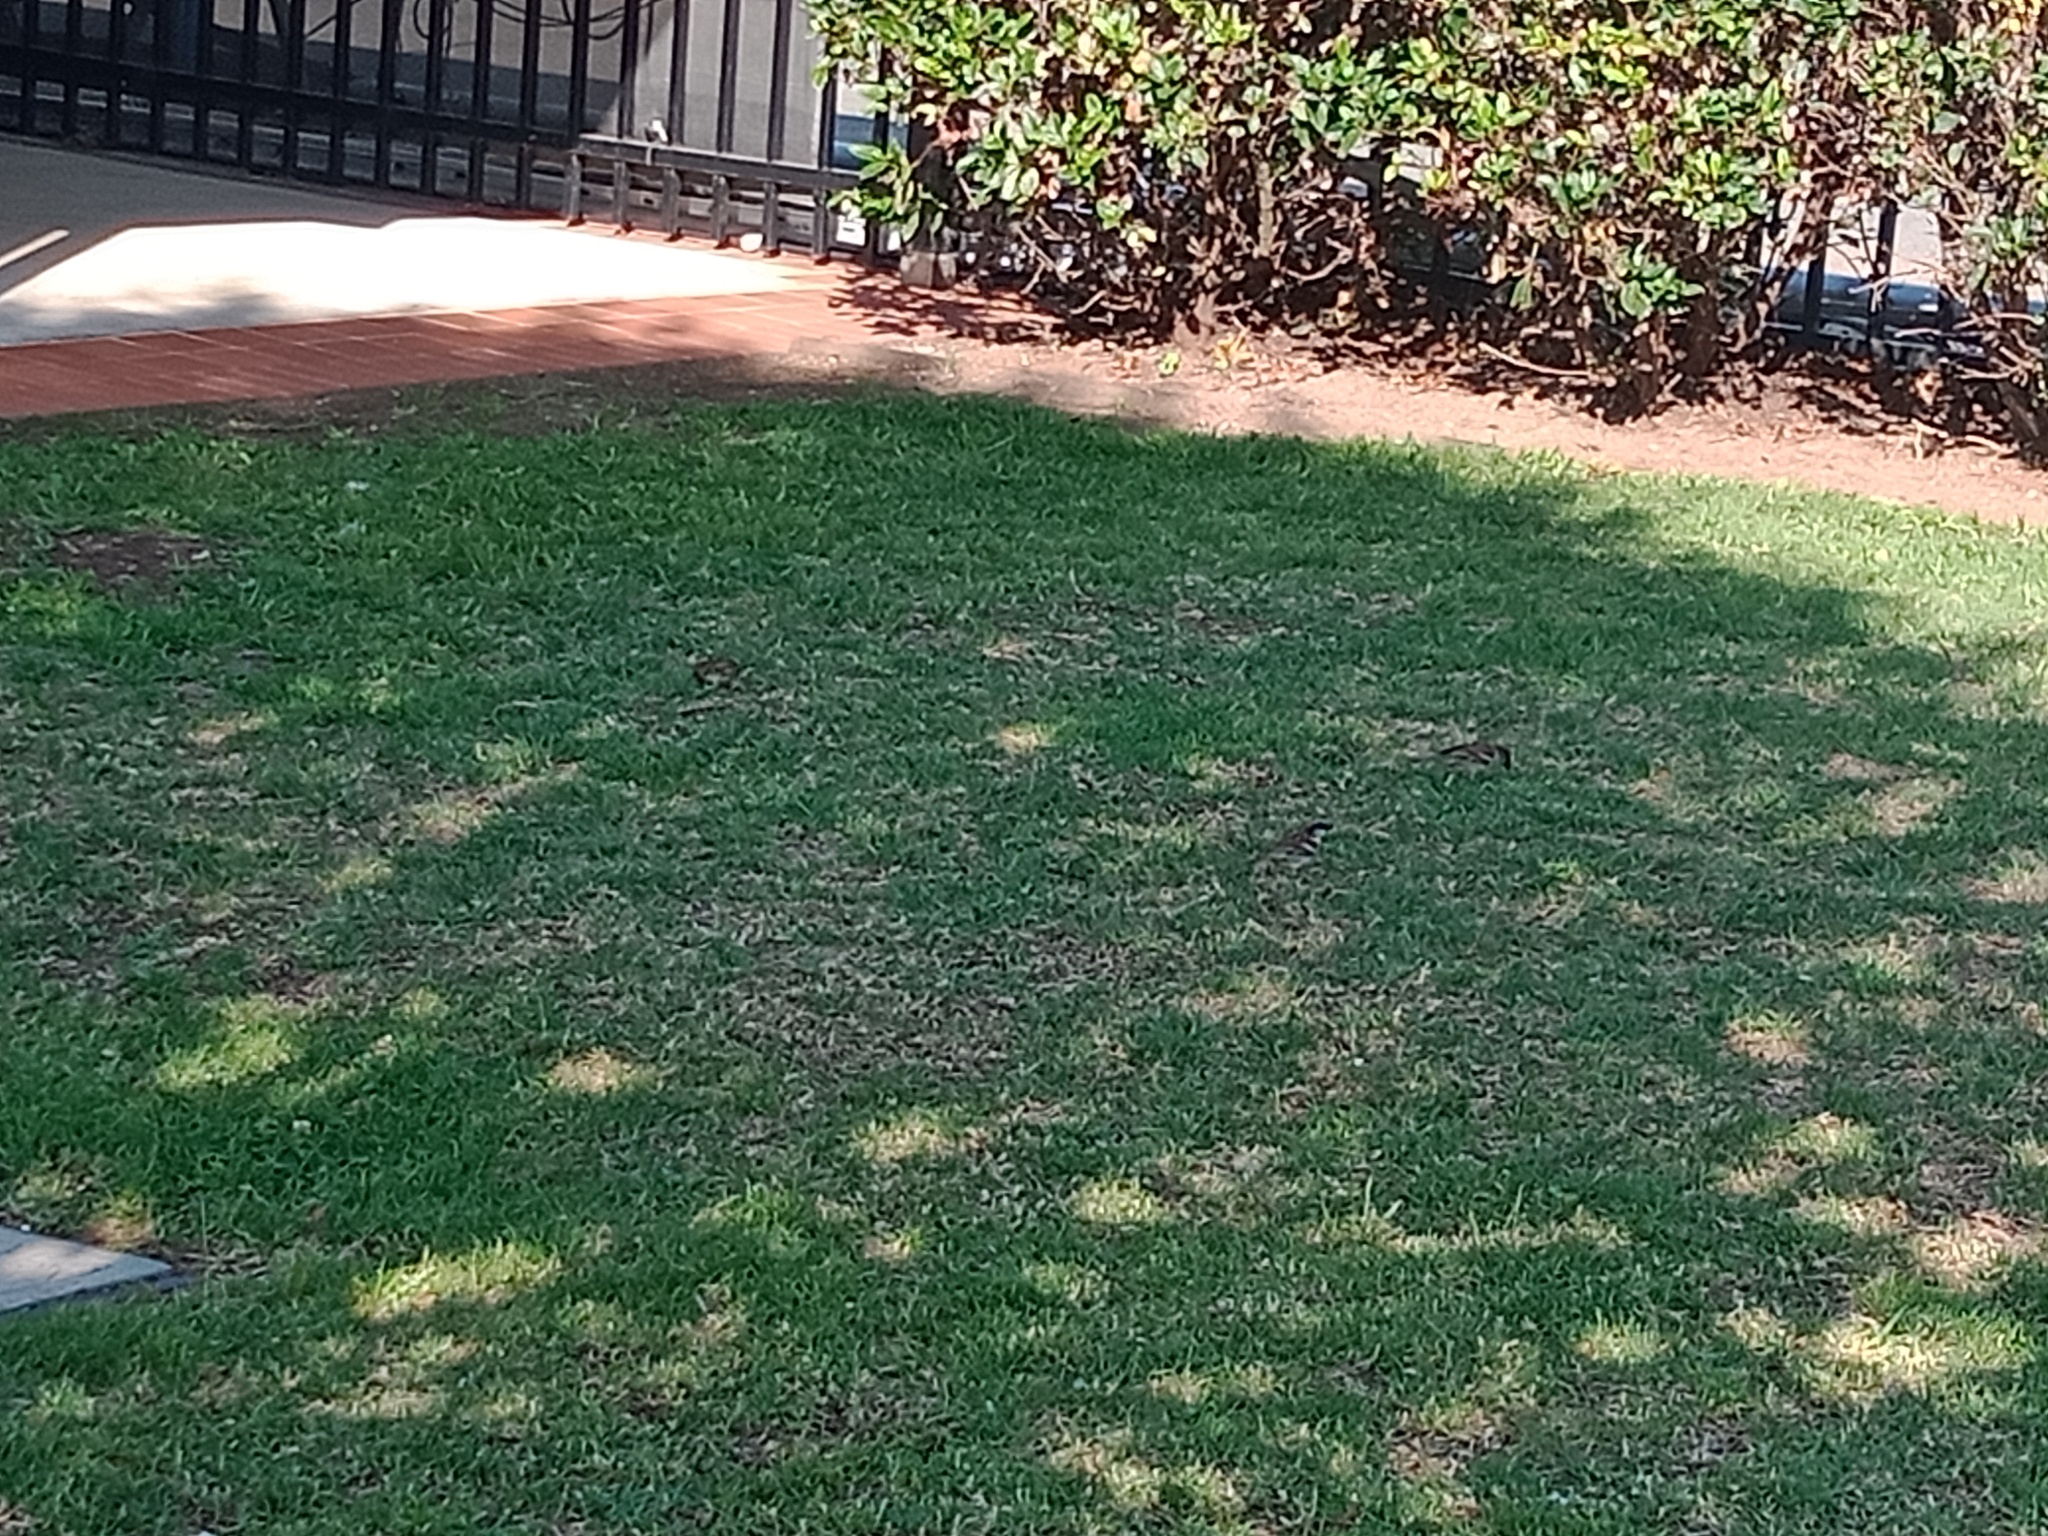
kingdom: Animalia
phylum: Chordata
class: Aves
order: Passeriformes
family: Passeridae
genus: Passer
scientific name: Passer domesticus
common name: House sparrow
